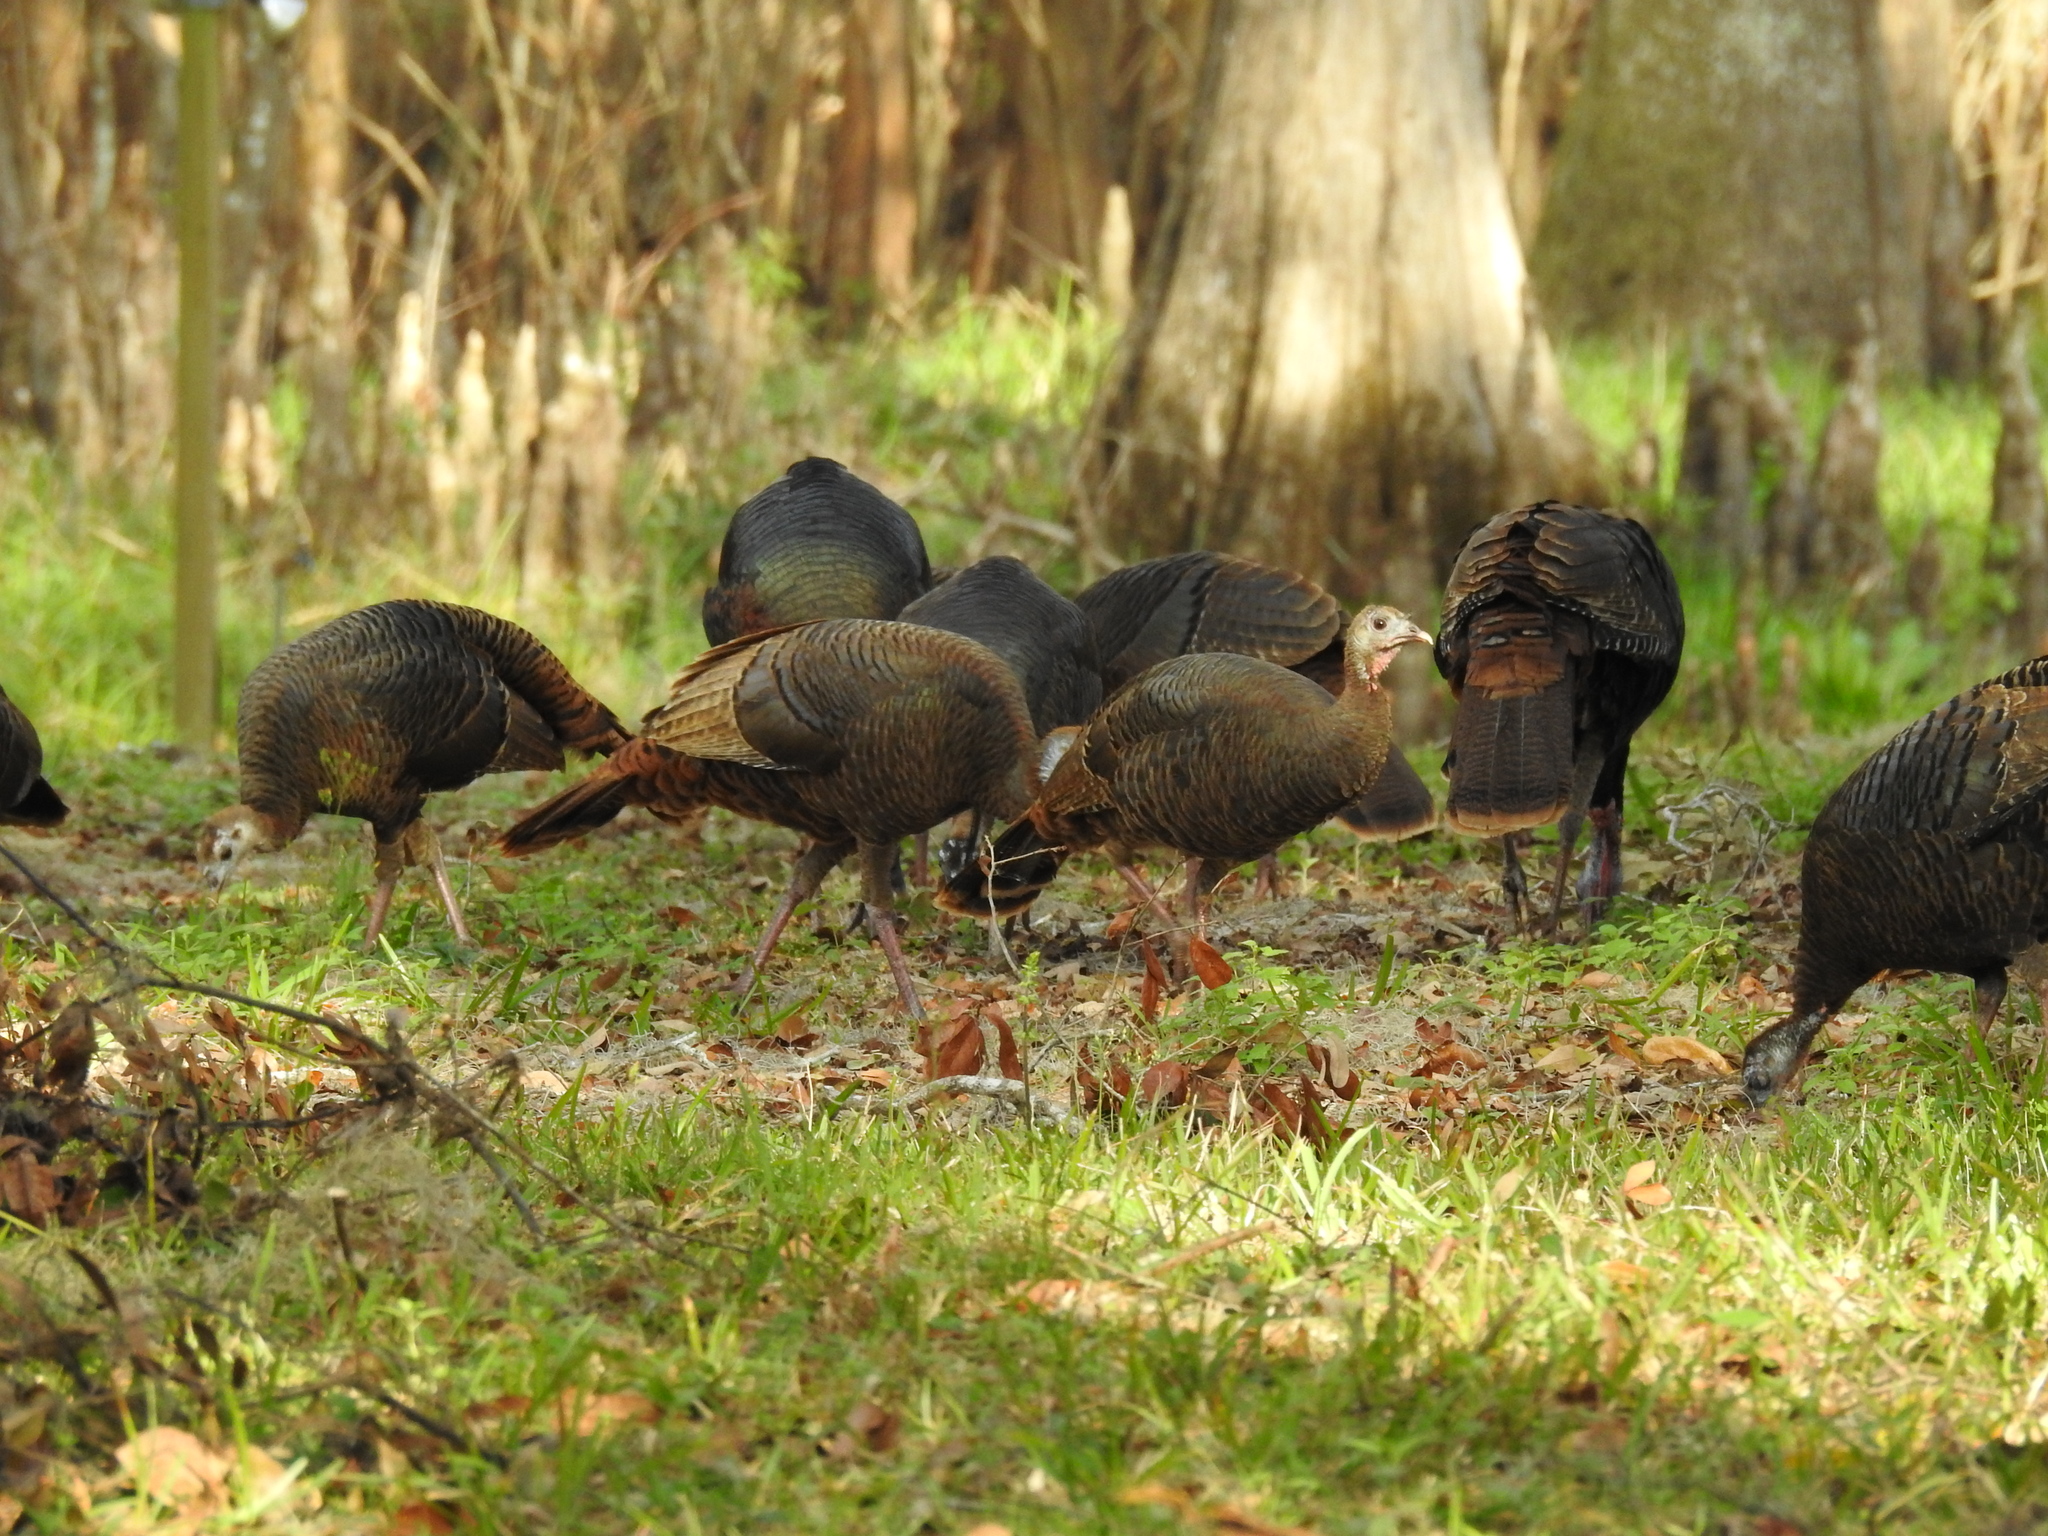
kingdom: Animalia
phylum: Chordata
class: Aves
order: Galliformes
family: Phasianidae
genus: Meleagris
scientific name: Meleagris gallopavo
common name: Wild turkey
